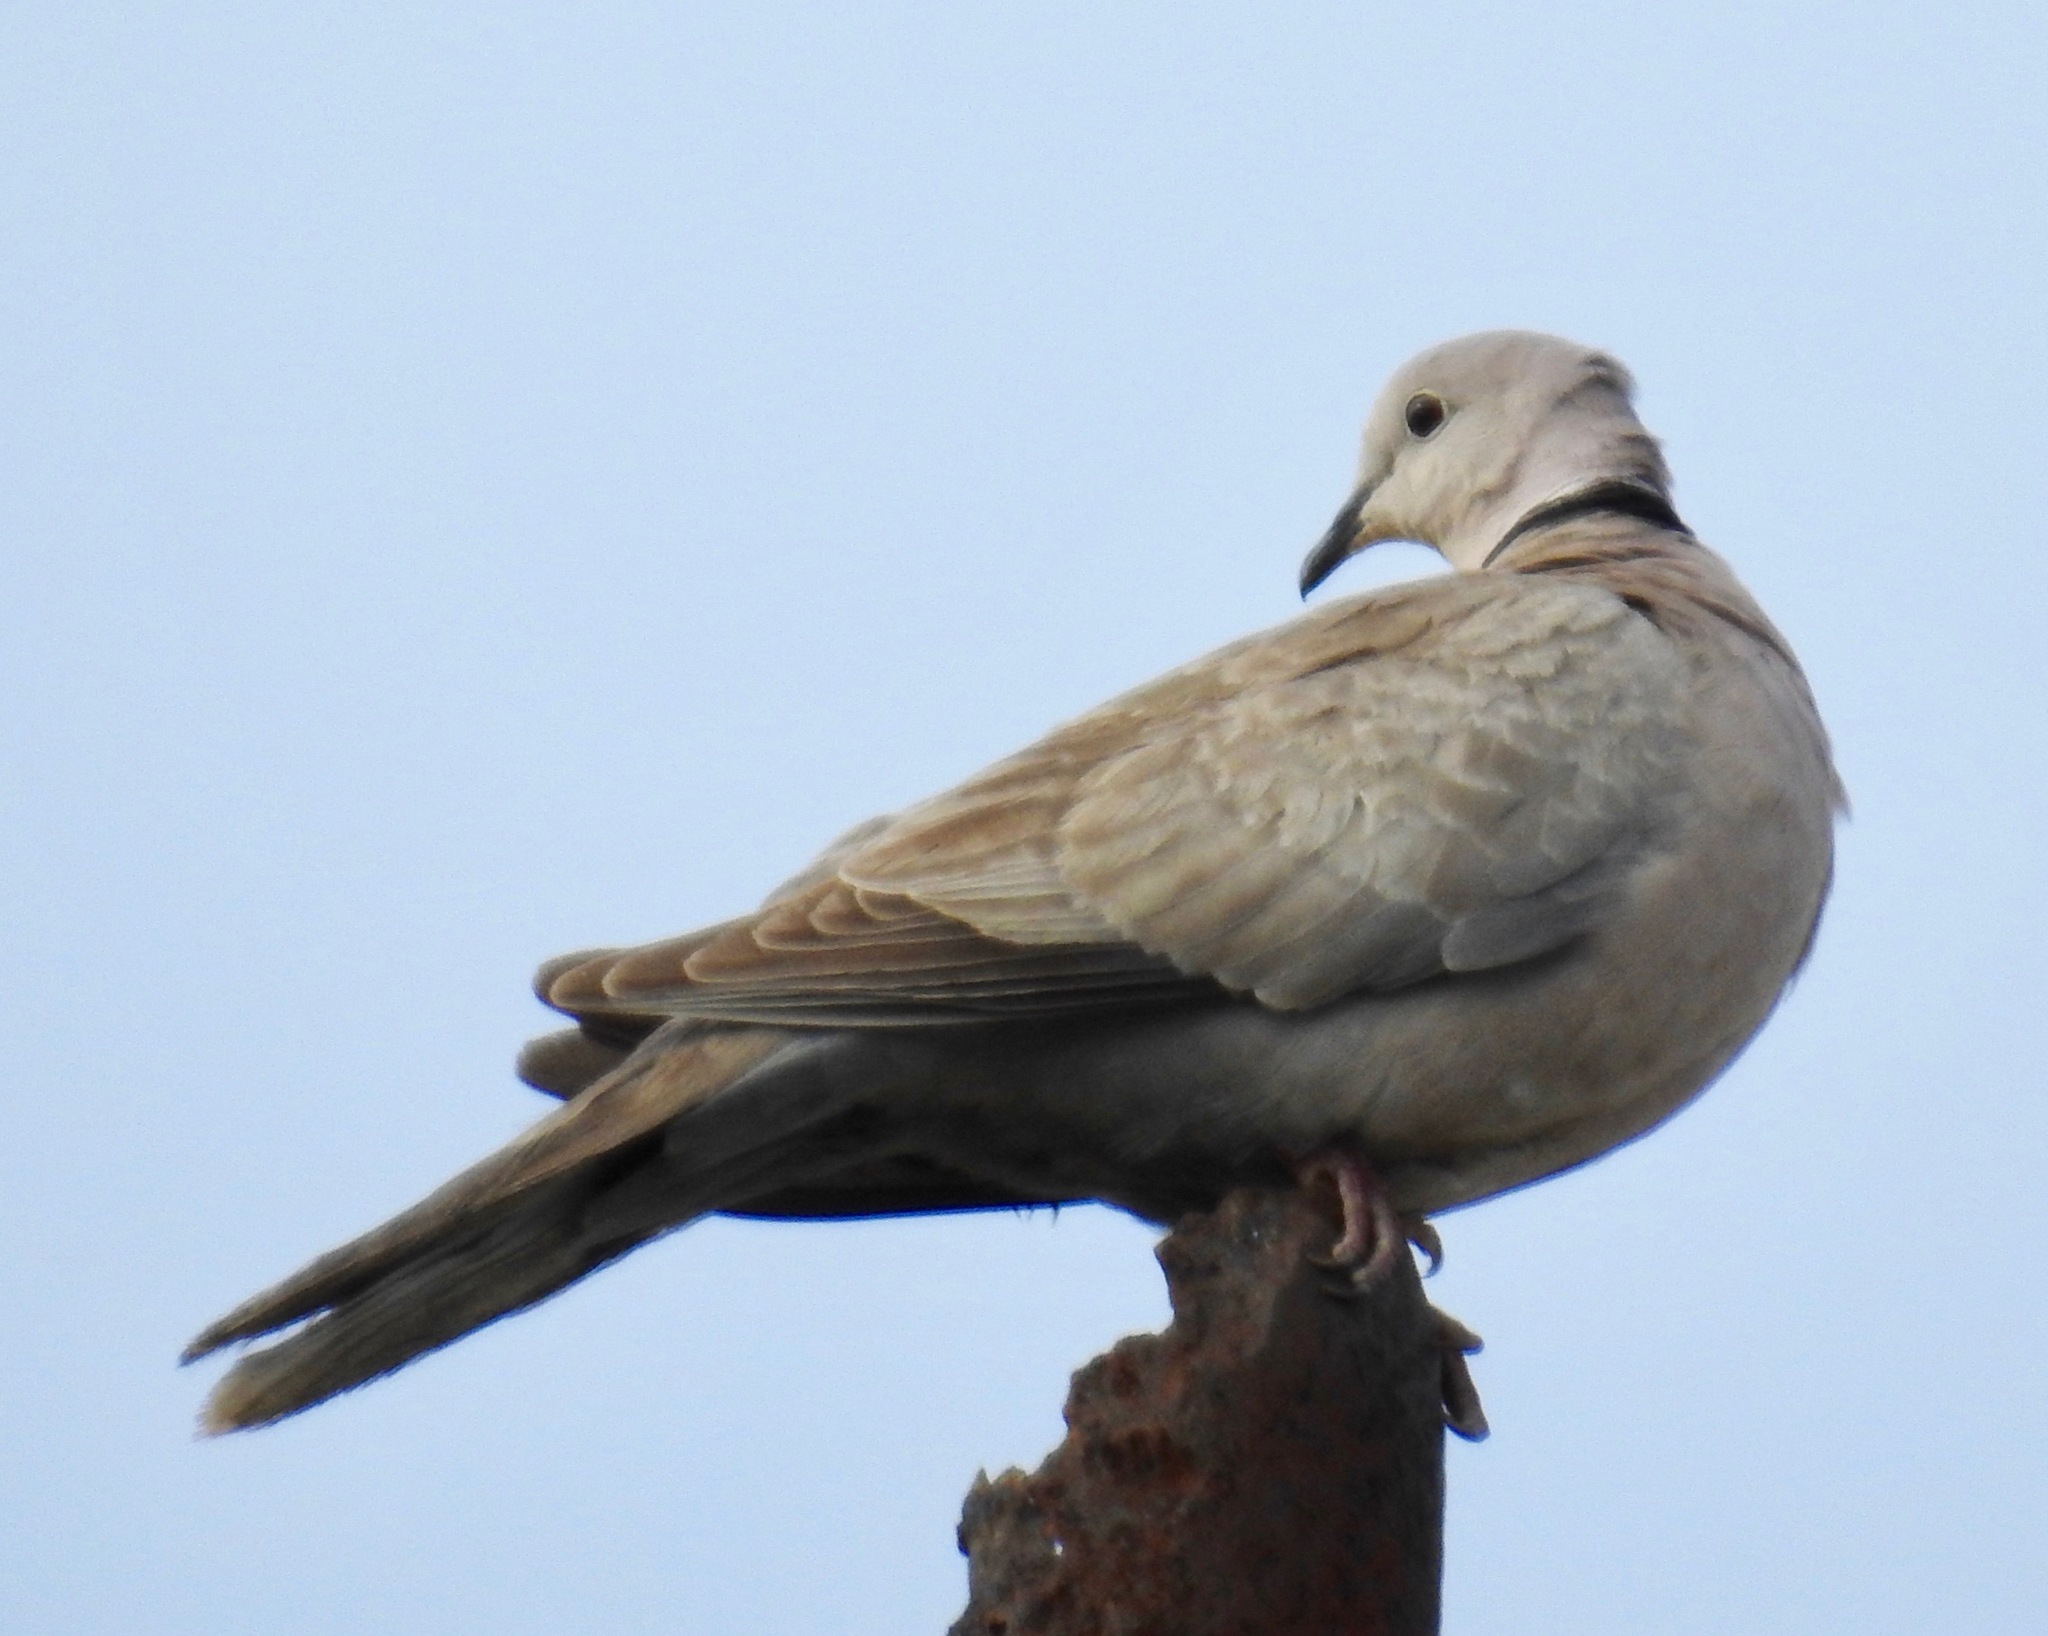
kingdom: Animalia
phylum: Chordata
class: Aves
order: Columbiformes
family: Columbidae
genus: Streptopelia
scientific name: Streptopelia decaocto
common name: Eurasian collared dove
